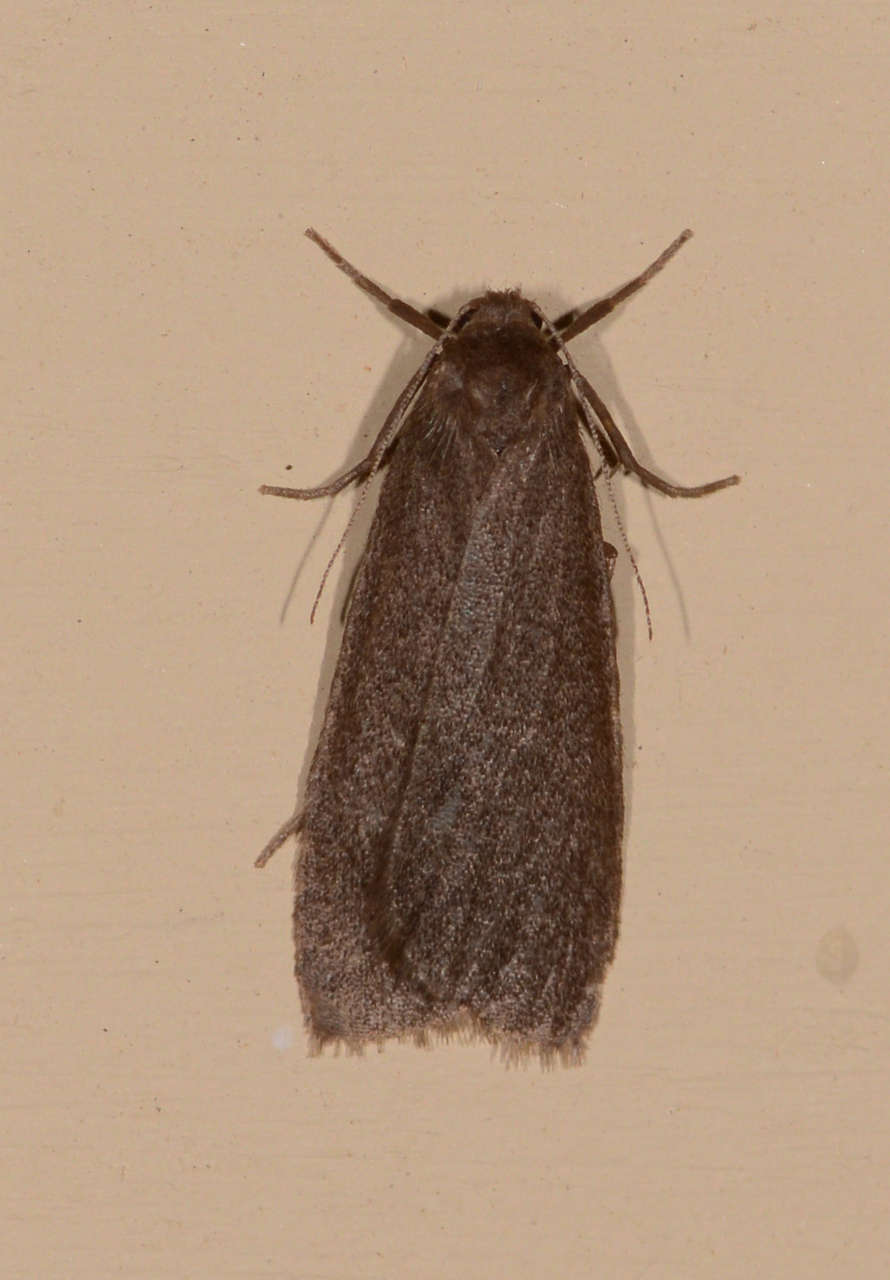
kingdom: Animalia
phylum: Arthropoda
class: Insecta
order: Lepidoptera
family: Erebidae
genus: Threnosia
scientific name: Threnosia myochroa
